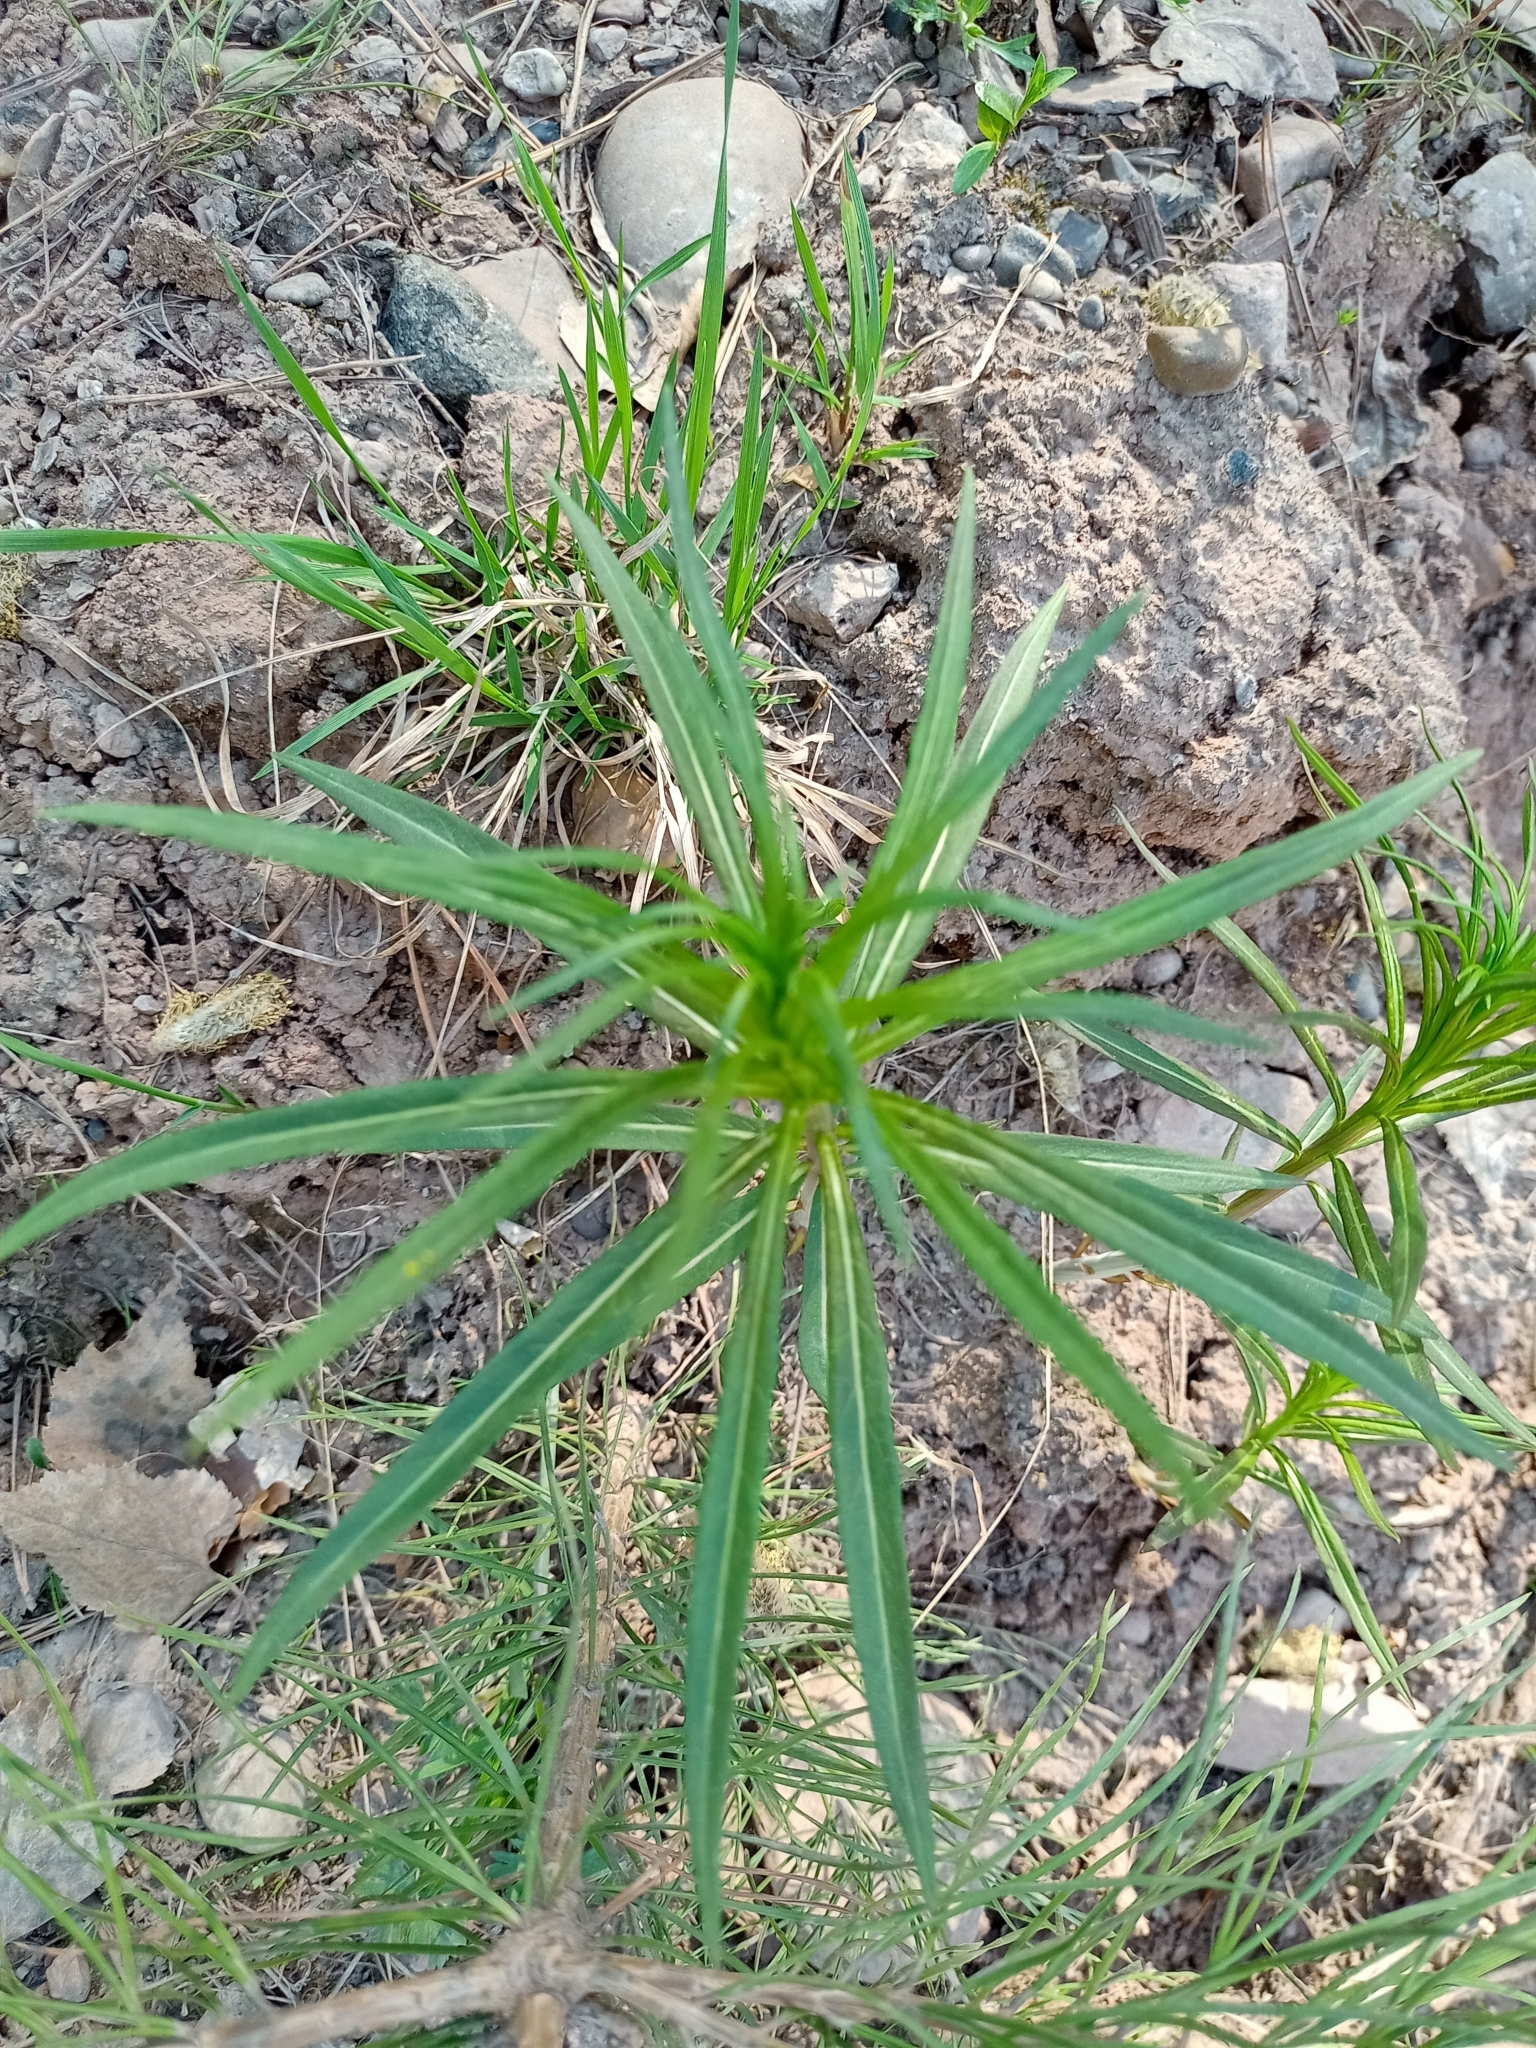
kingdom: Plantae
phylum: Tracheophyta
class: Magnoliopsida
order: Myrtales
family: Onagraceae
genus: Chamaenerion
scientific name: Chamaenerion angustifolium
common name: Fireweed
